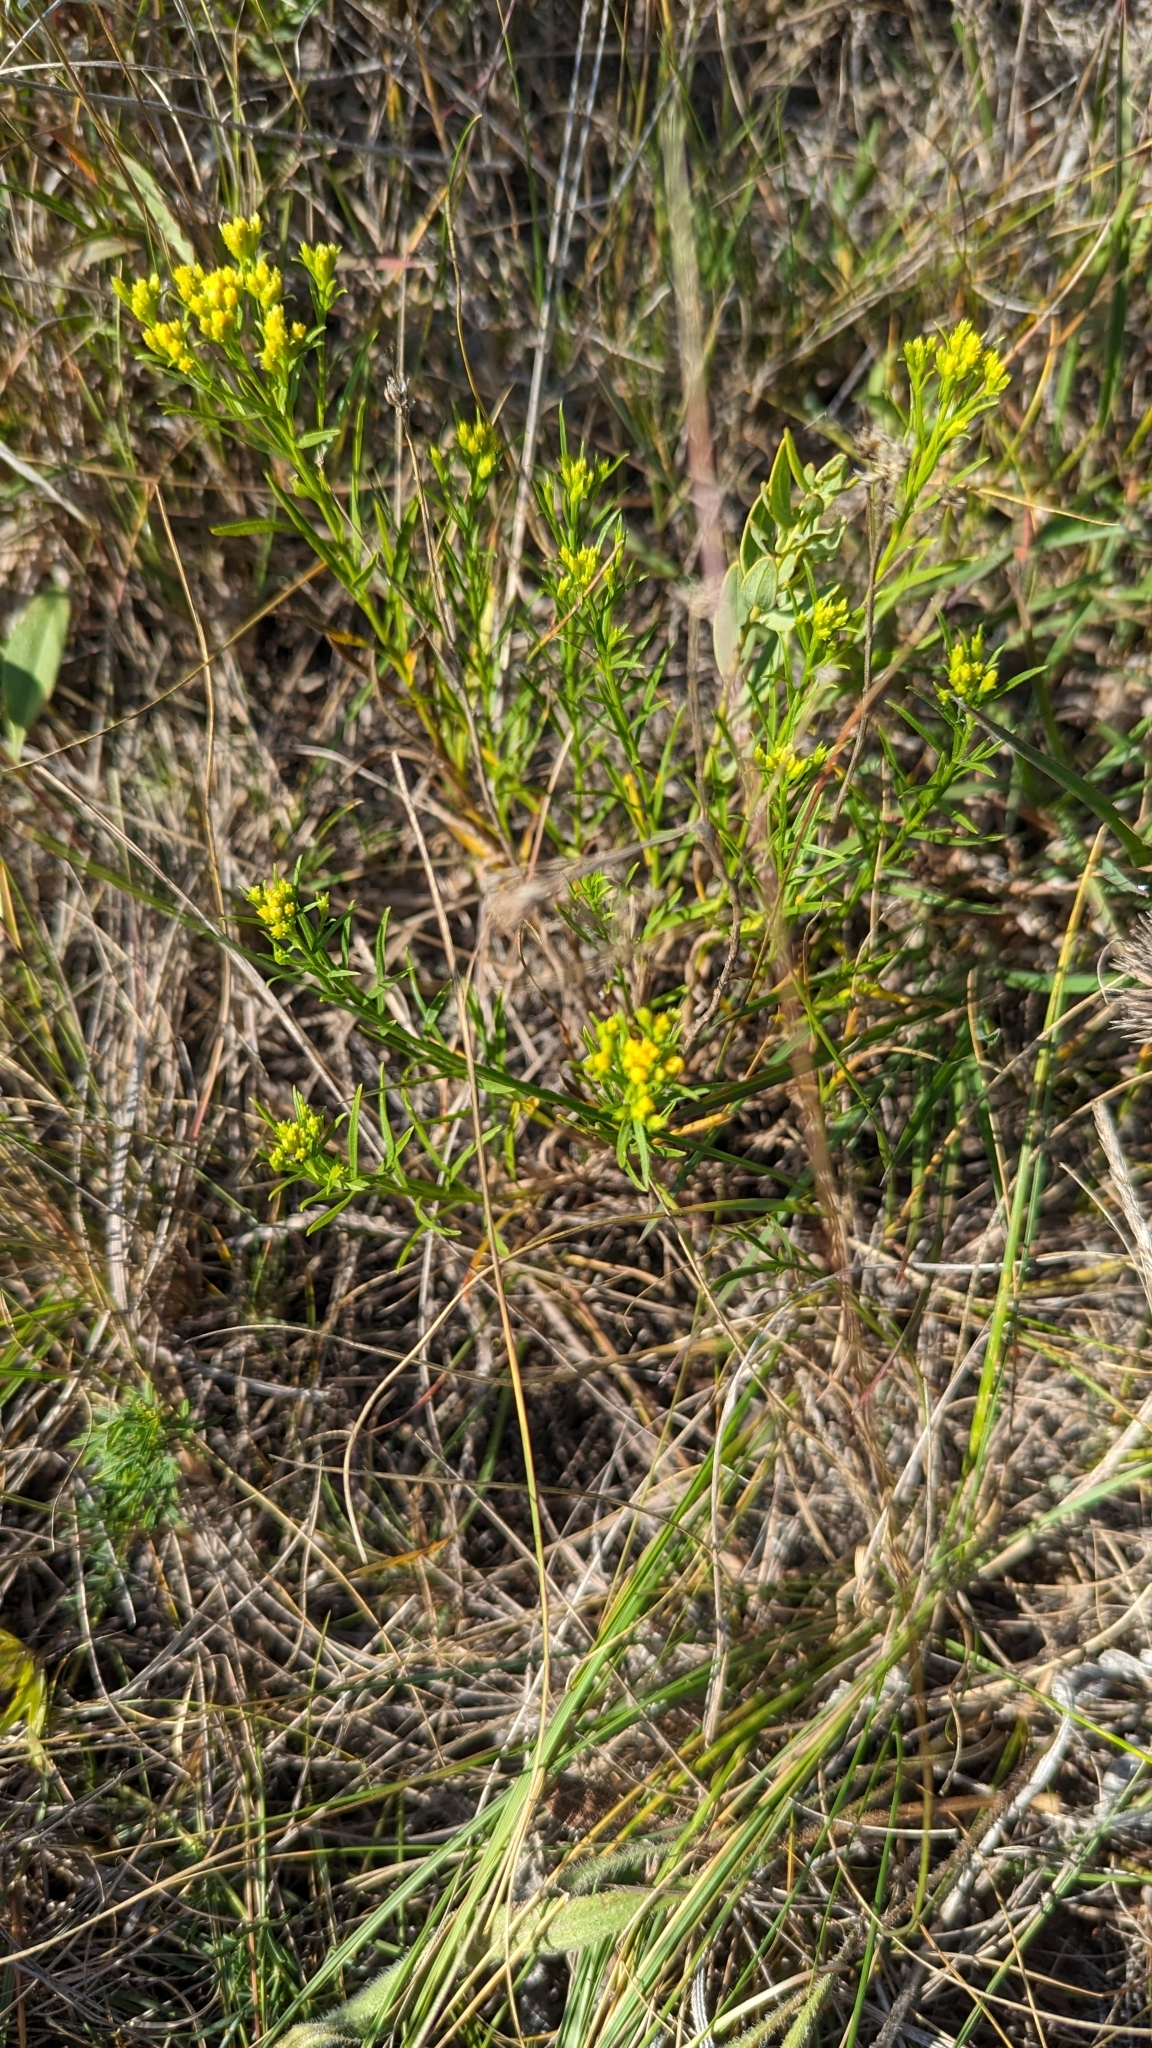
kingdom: Plantae
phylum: Tracheophyta
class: Magnoliopsida
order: Asterales
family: Asteraceae
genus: Gutierrezia
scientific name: Gutierrezia sarothrae
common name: Broom snakeweed
